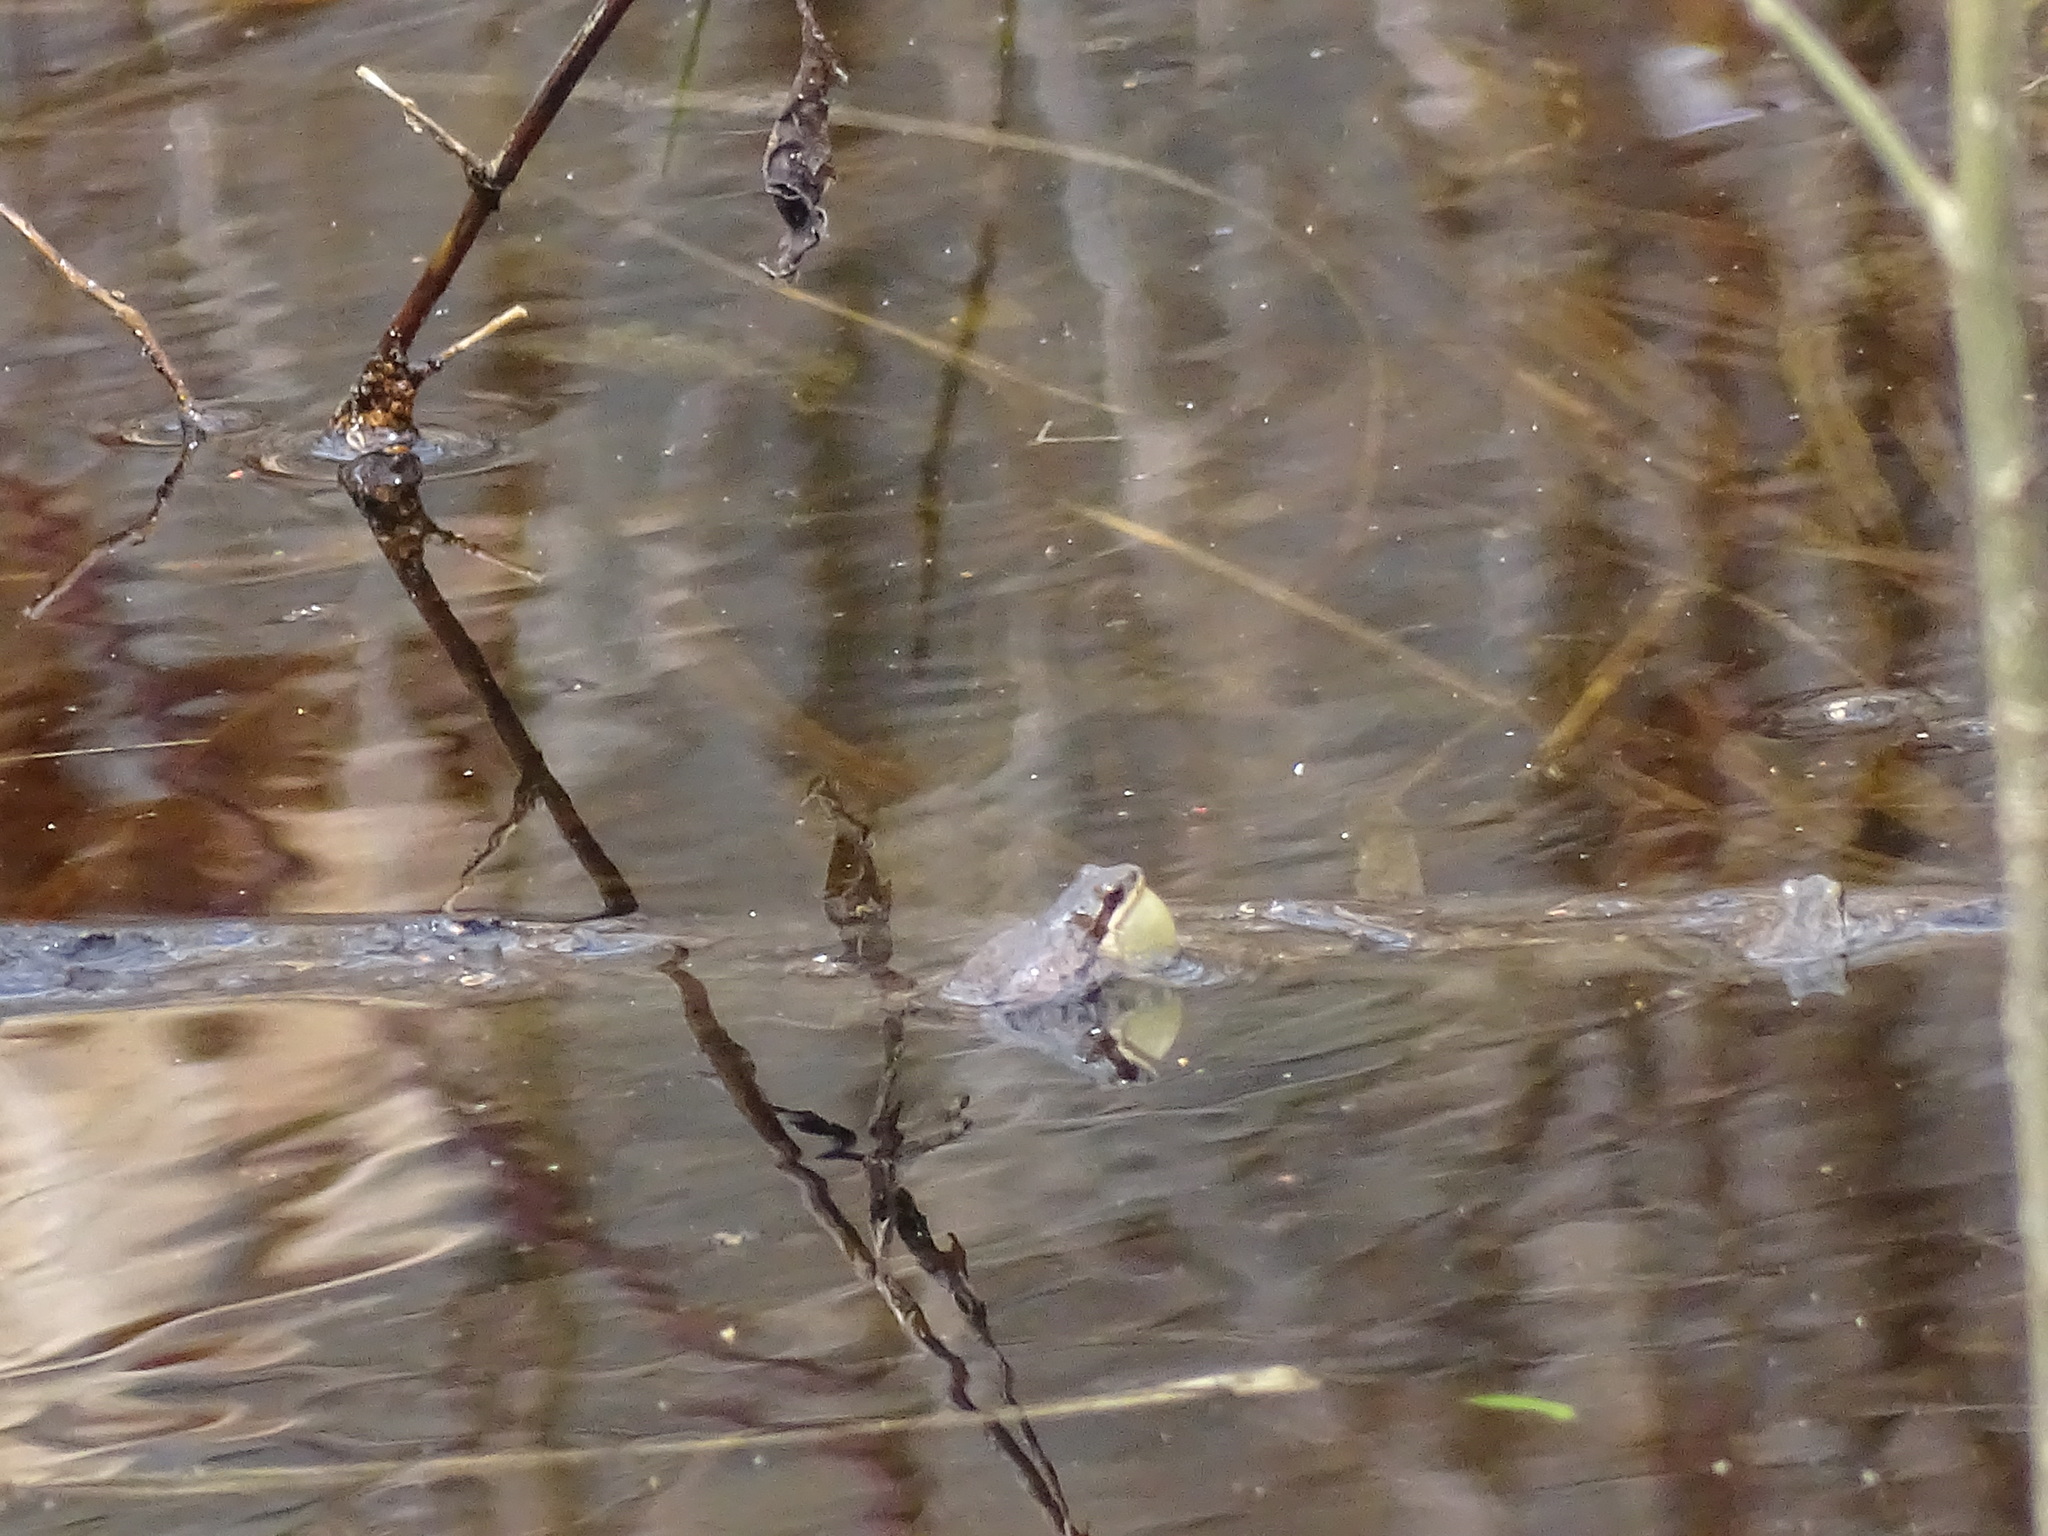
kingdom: Animalia
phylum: Chordata
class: Amphibia
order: Anura
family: Hylidae
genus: Pseudacris
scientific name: Pseudacris triseriata
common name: Western chorus frog
